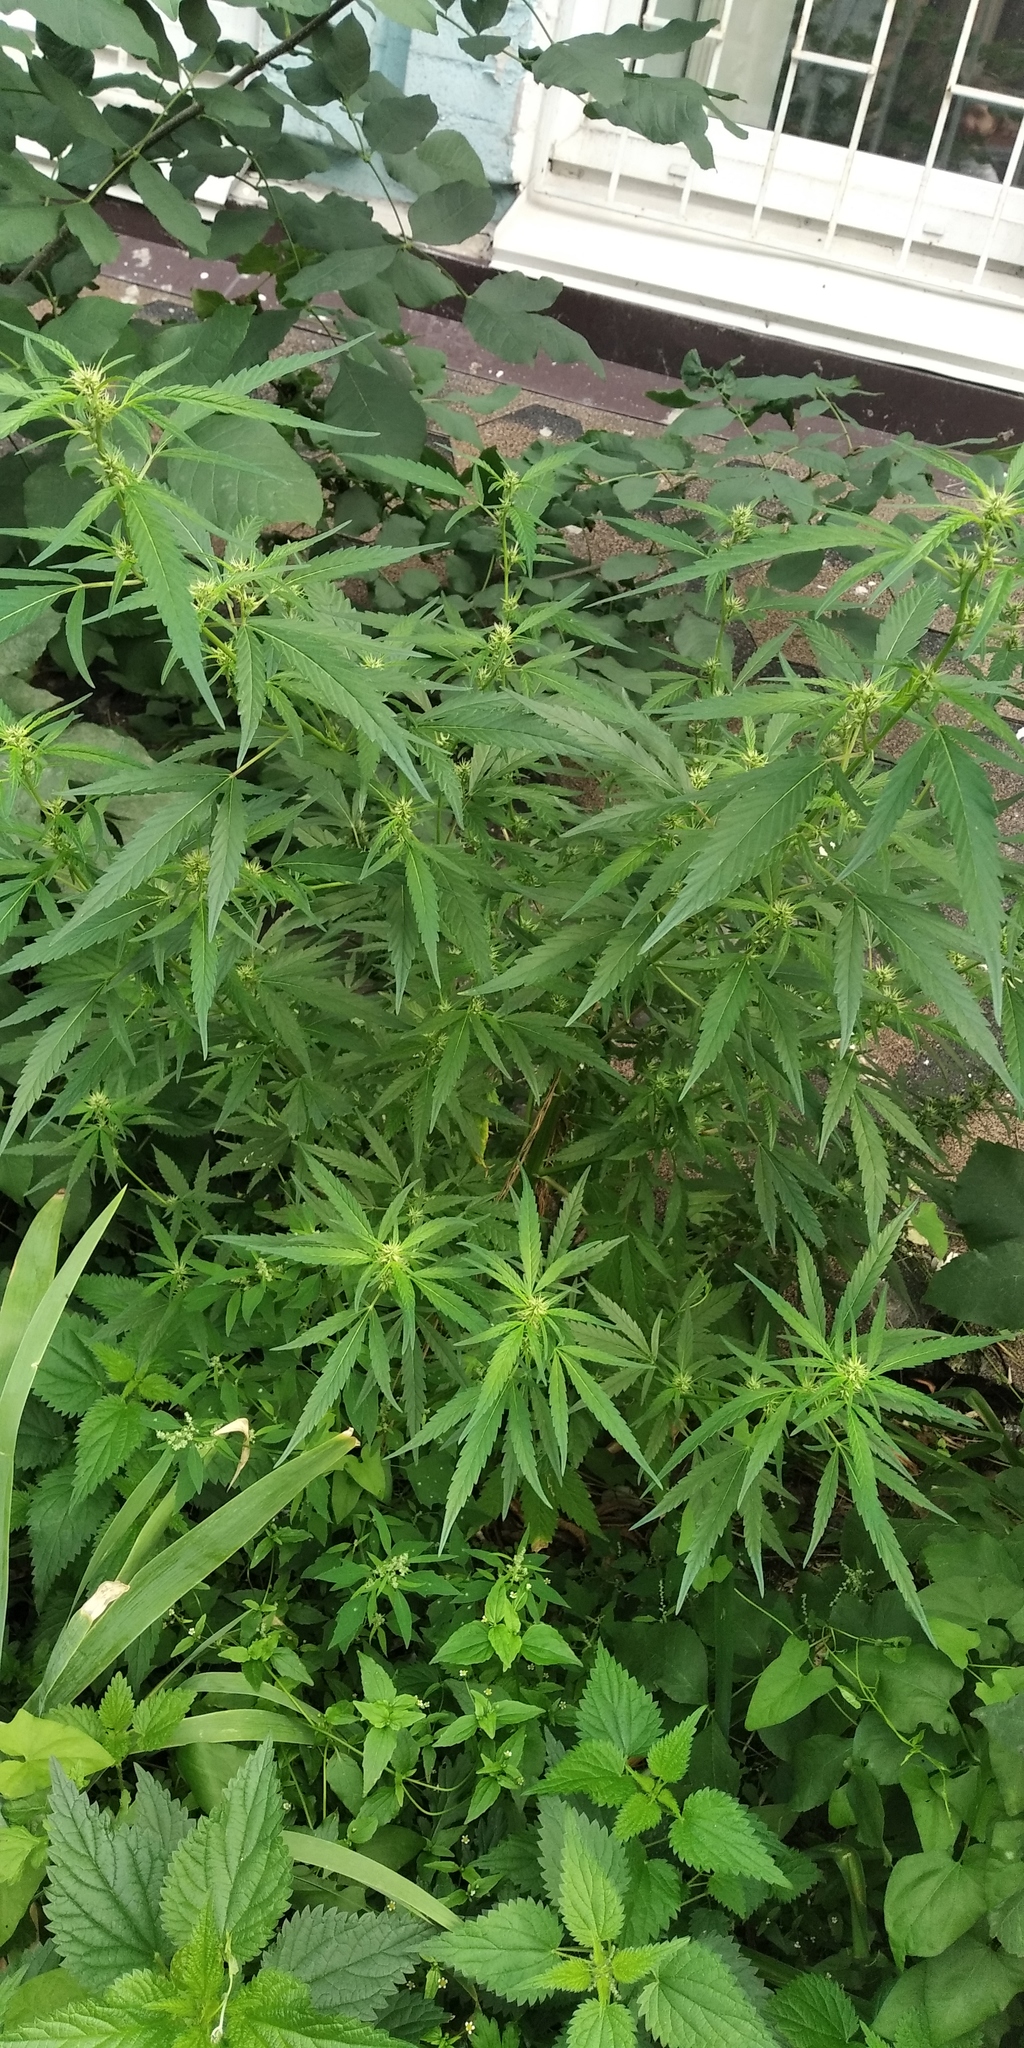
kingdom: Plantae
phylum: Tracheophyta
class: Magnoliopsida
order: Rosales
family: Cannabaceae
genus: Cannabis
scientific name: Cannabis sativa
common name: Hemp
